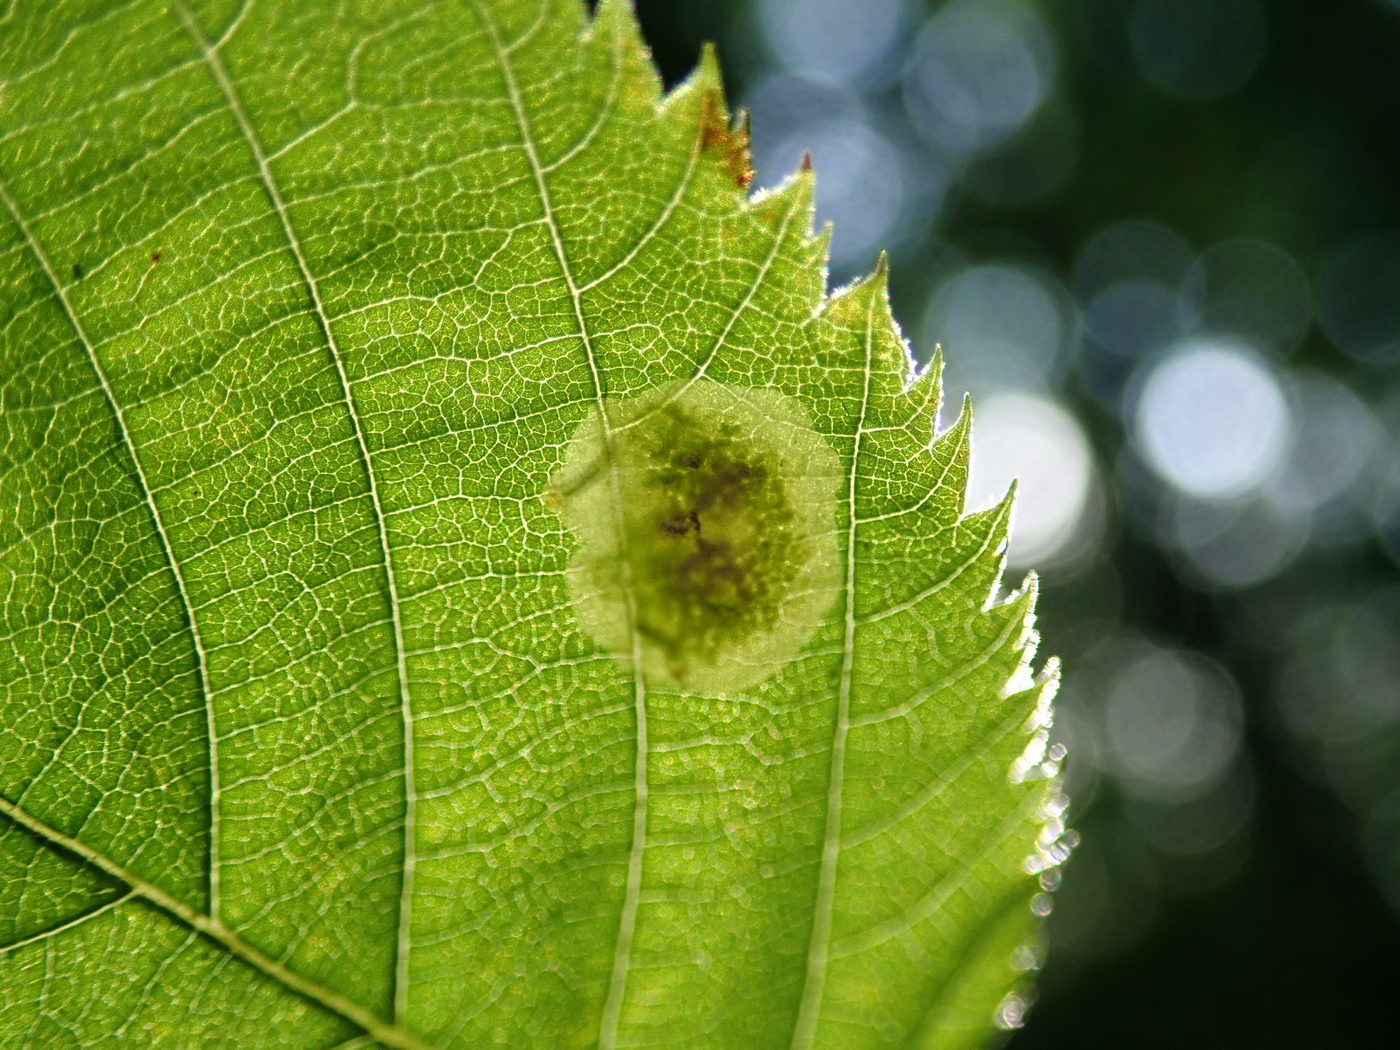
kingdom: Animalia
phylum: Arthropoda
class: Insecta
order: Lepidoptera
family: Gracillariidae
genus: Cameraria
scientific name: Cameraria corylisella
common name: Hazel blotchminer
